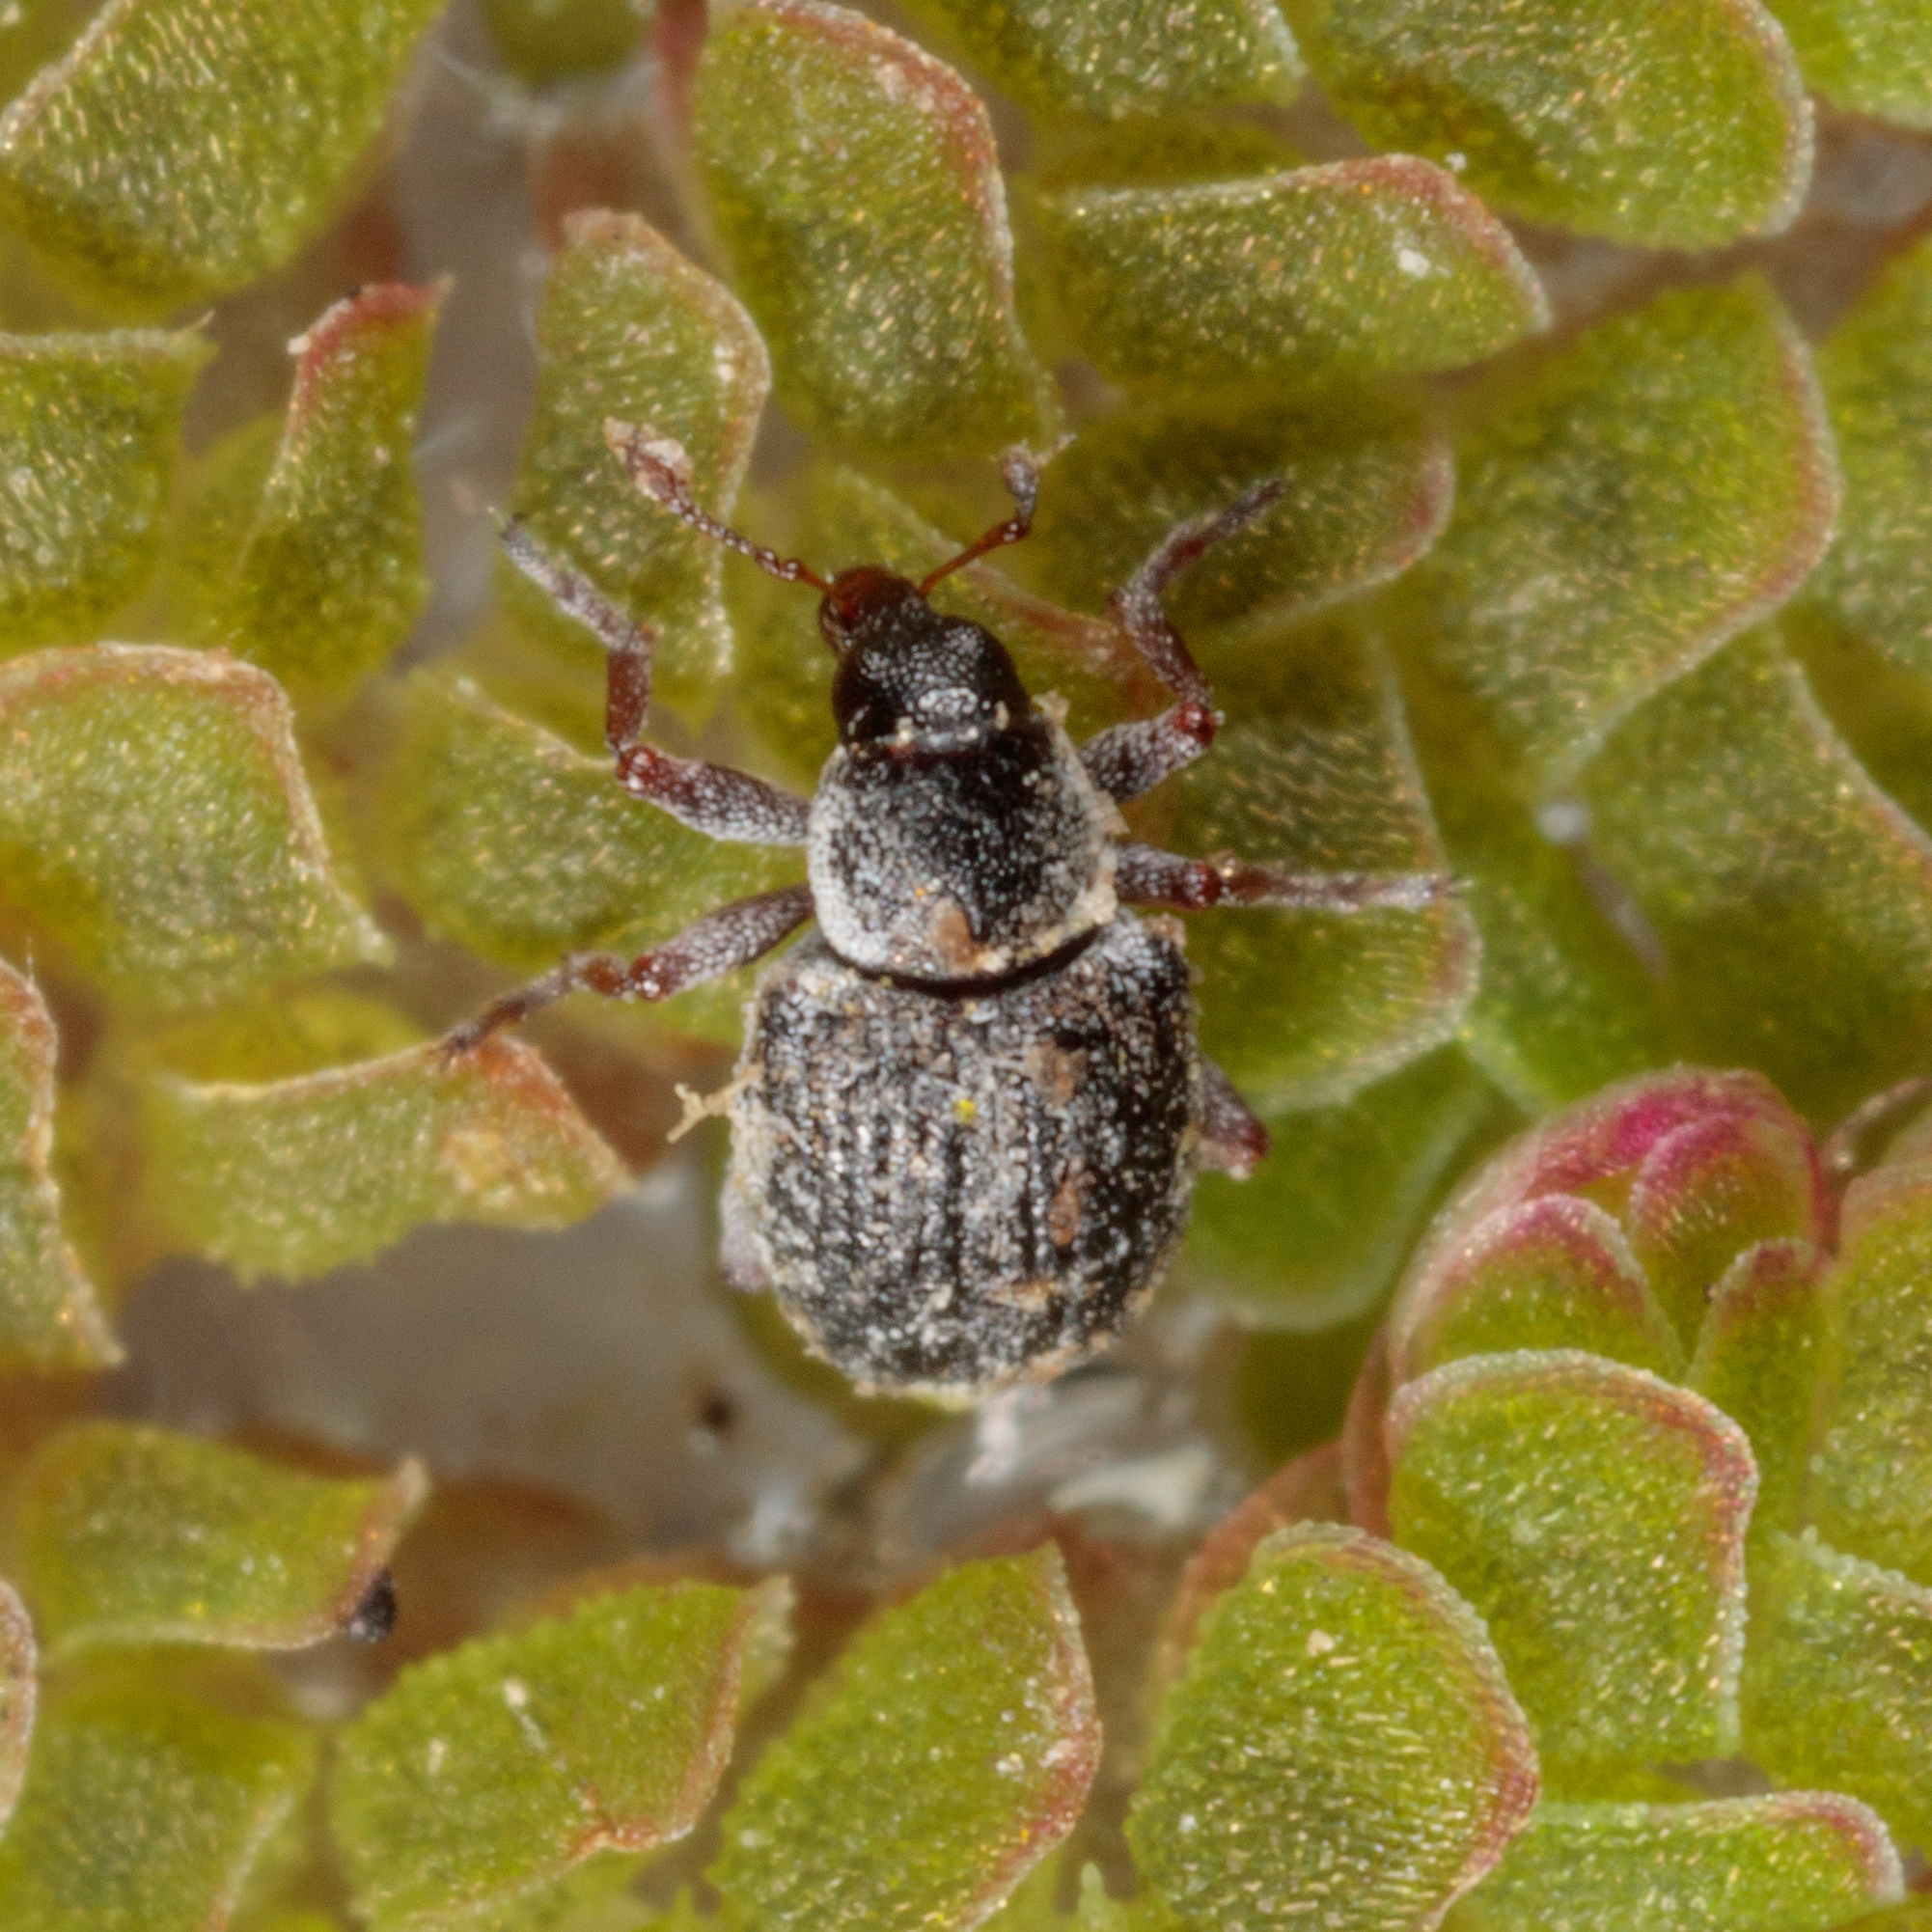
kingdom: Animalia
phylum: Arthropoda
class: Insecta
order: Coleoptera
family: Brachyceridae
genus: Stenopelmus
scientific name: Stenopelmus rufinasus
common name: Azolla weevil
